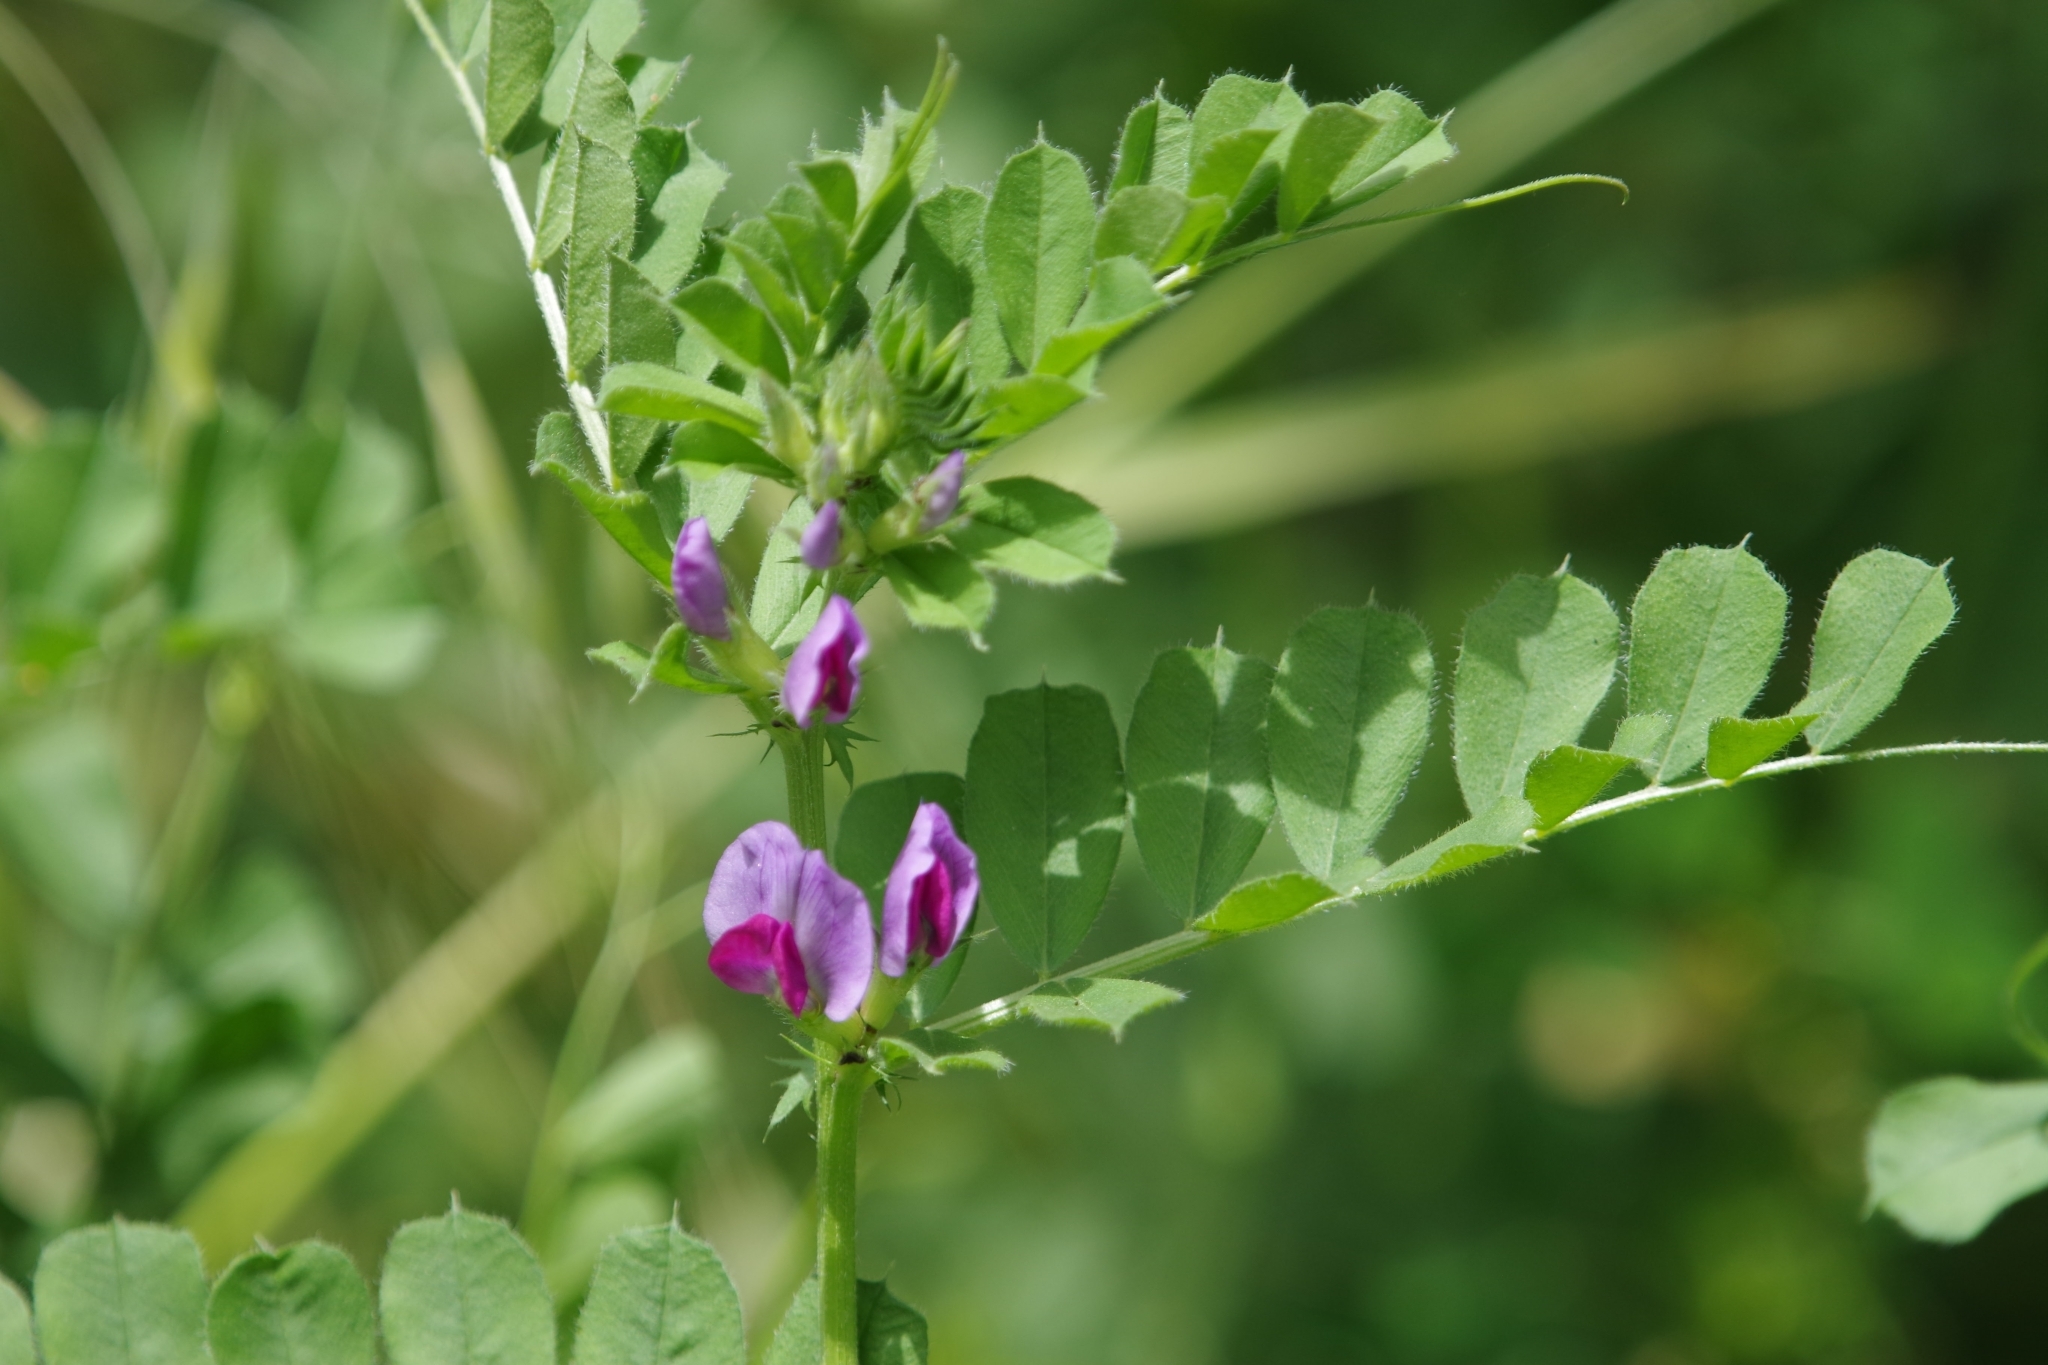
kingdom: Plantae
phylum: Tracheophyta
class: Magnoliopsida
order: Fabales
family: Fabaceae
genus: Vicia
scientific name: Vicia sativa
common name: Garden vetch
